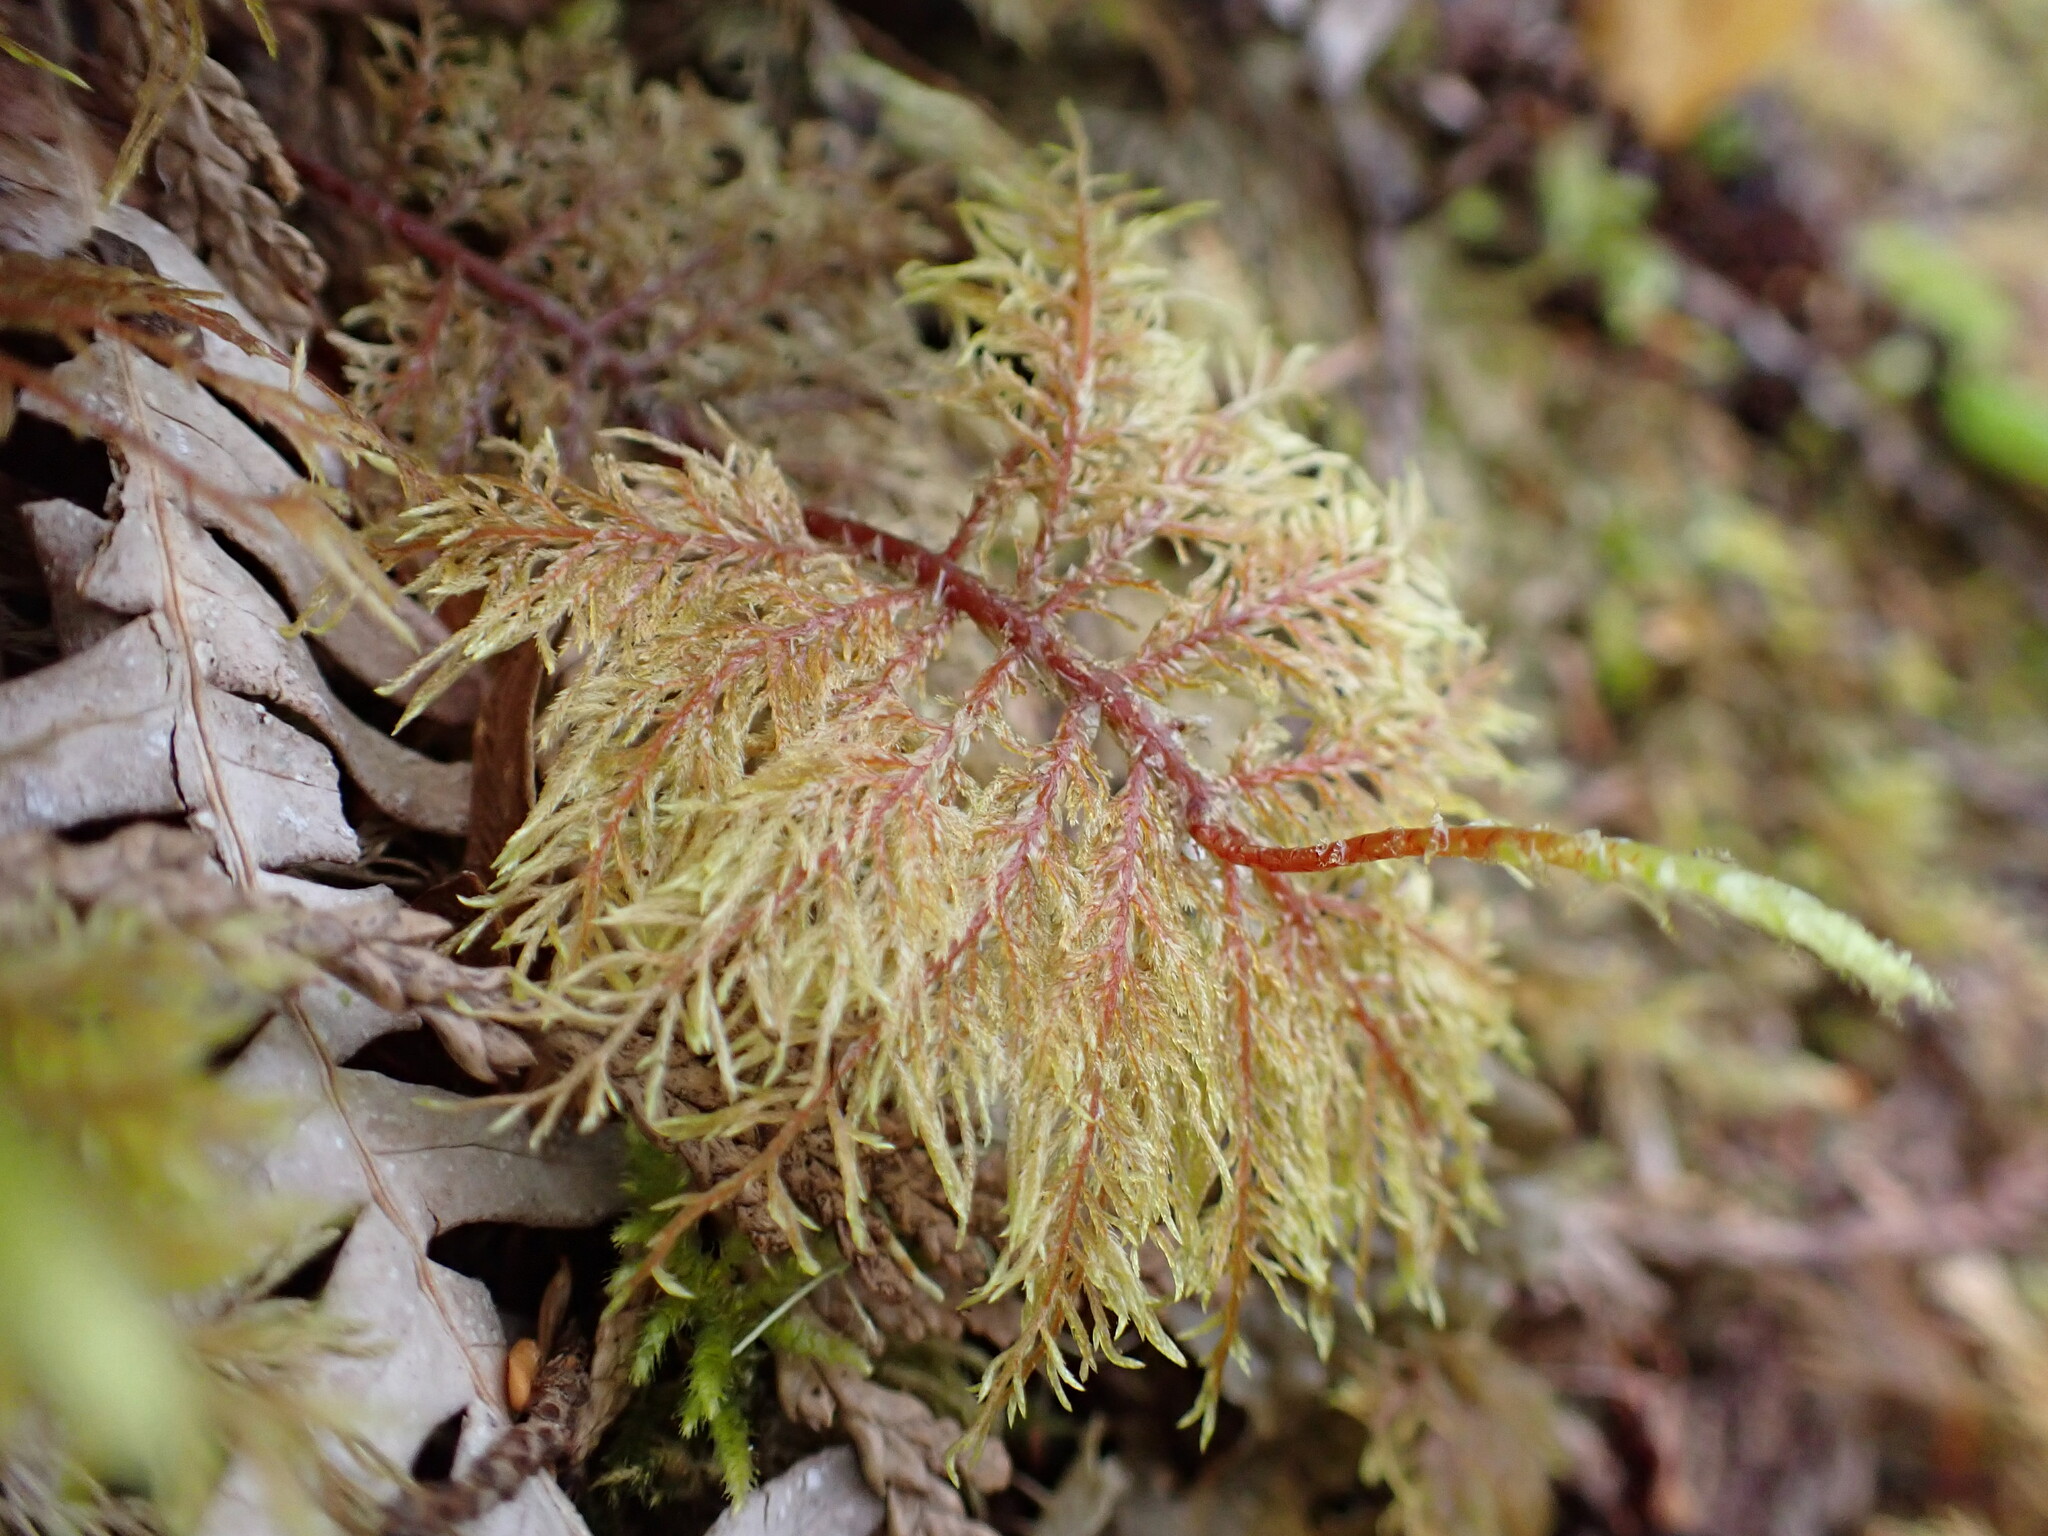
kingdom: Plantae
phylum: Bryophyta
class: Bryopsida
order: Hypnales
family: Hylocomiaceae
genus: Hylocomium
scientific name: Hylocomium splendens
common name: Stairstep moss
